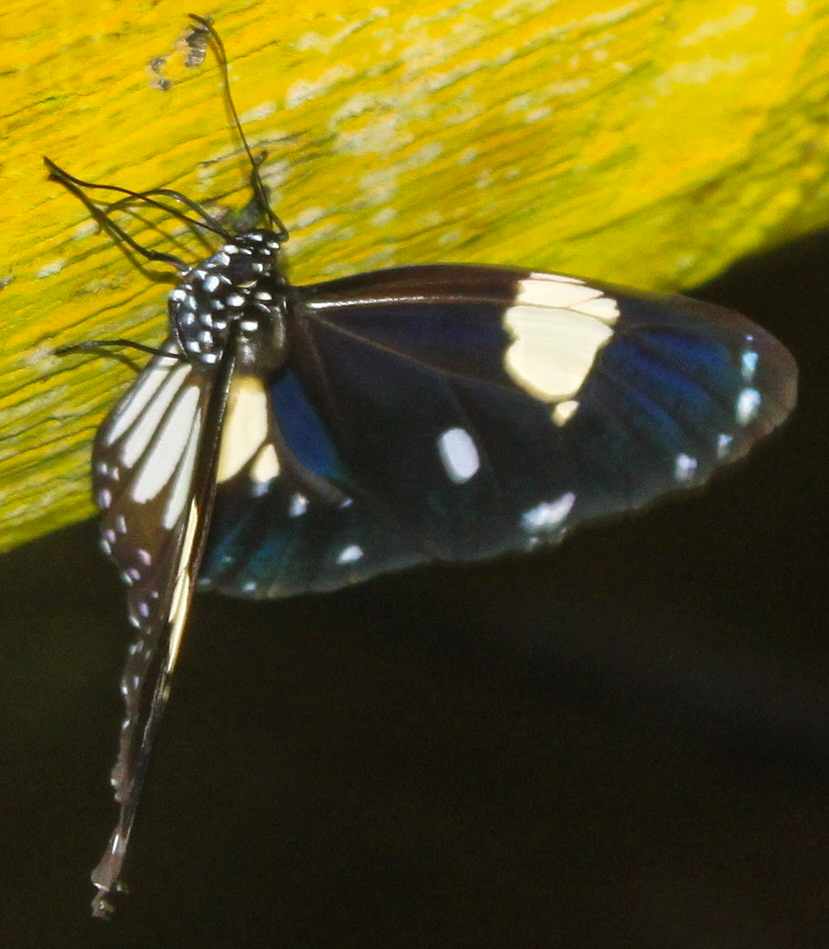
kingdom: Animalia
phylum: Arthropoda
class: Insecta
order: Lepidoptera
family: Nymphalidae
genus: Euploea
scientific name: Euploea radamanthus
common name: Magpie crow butterfly
